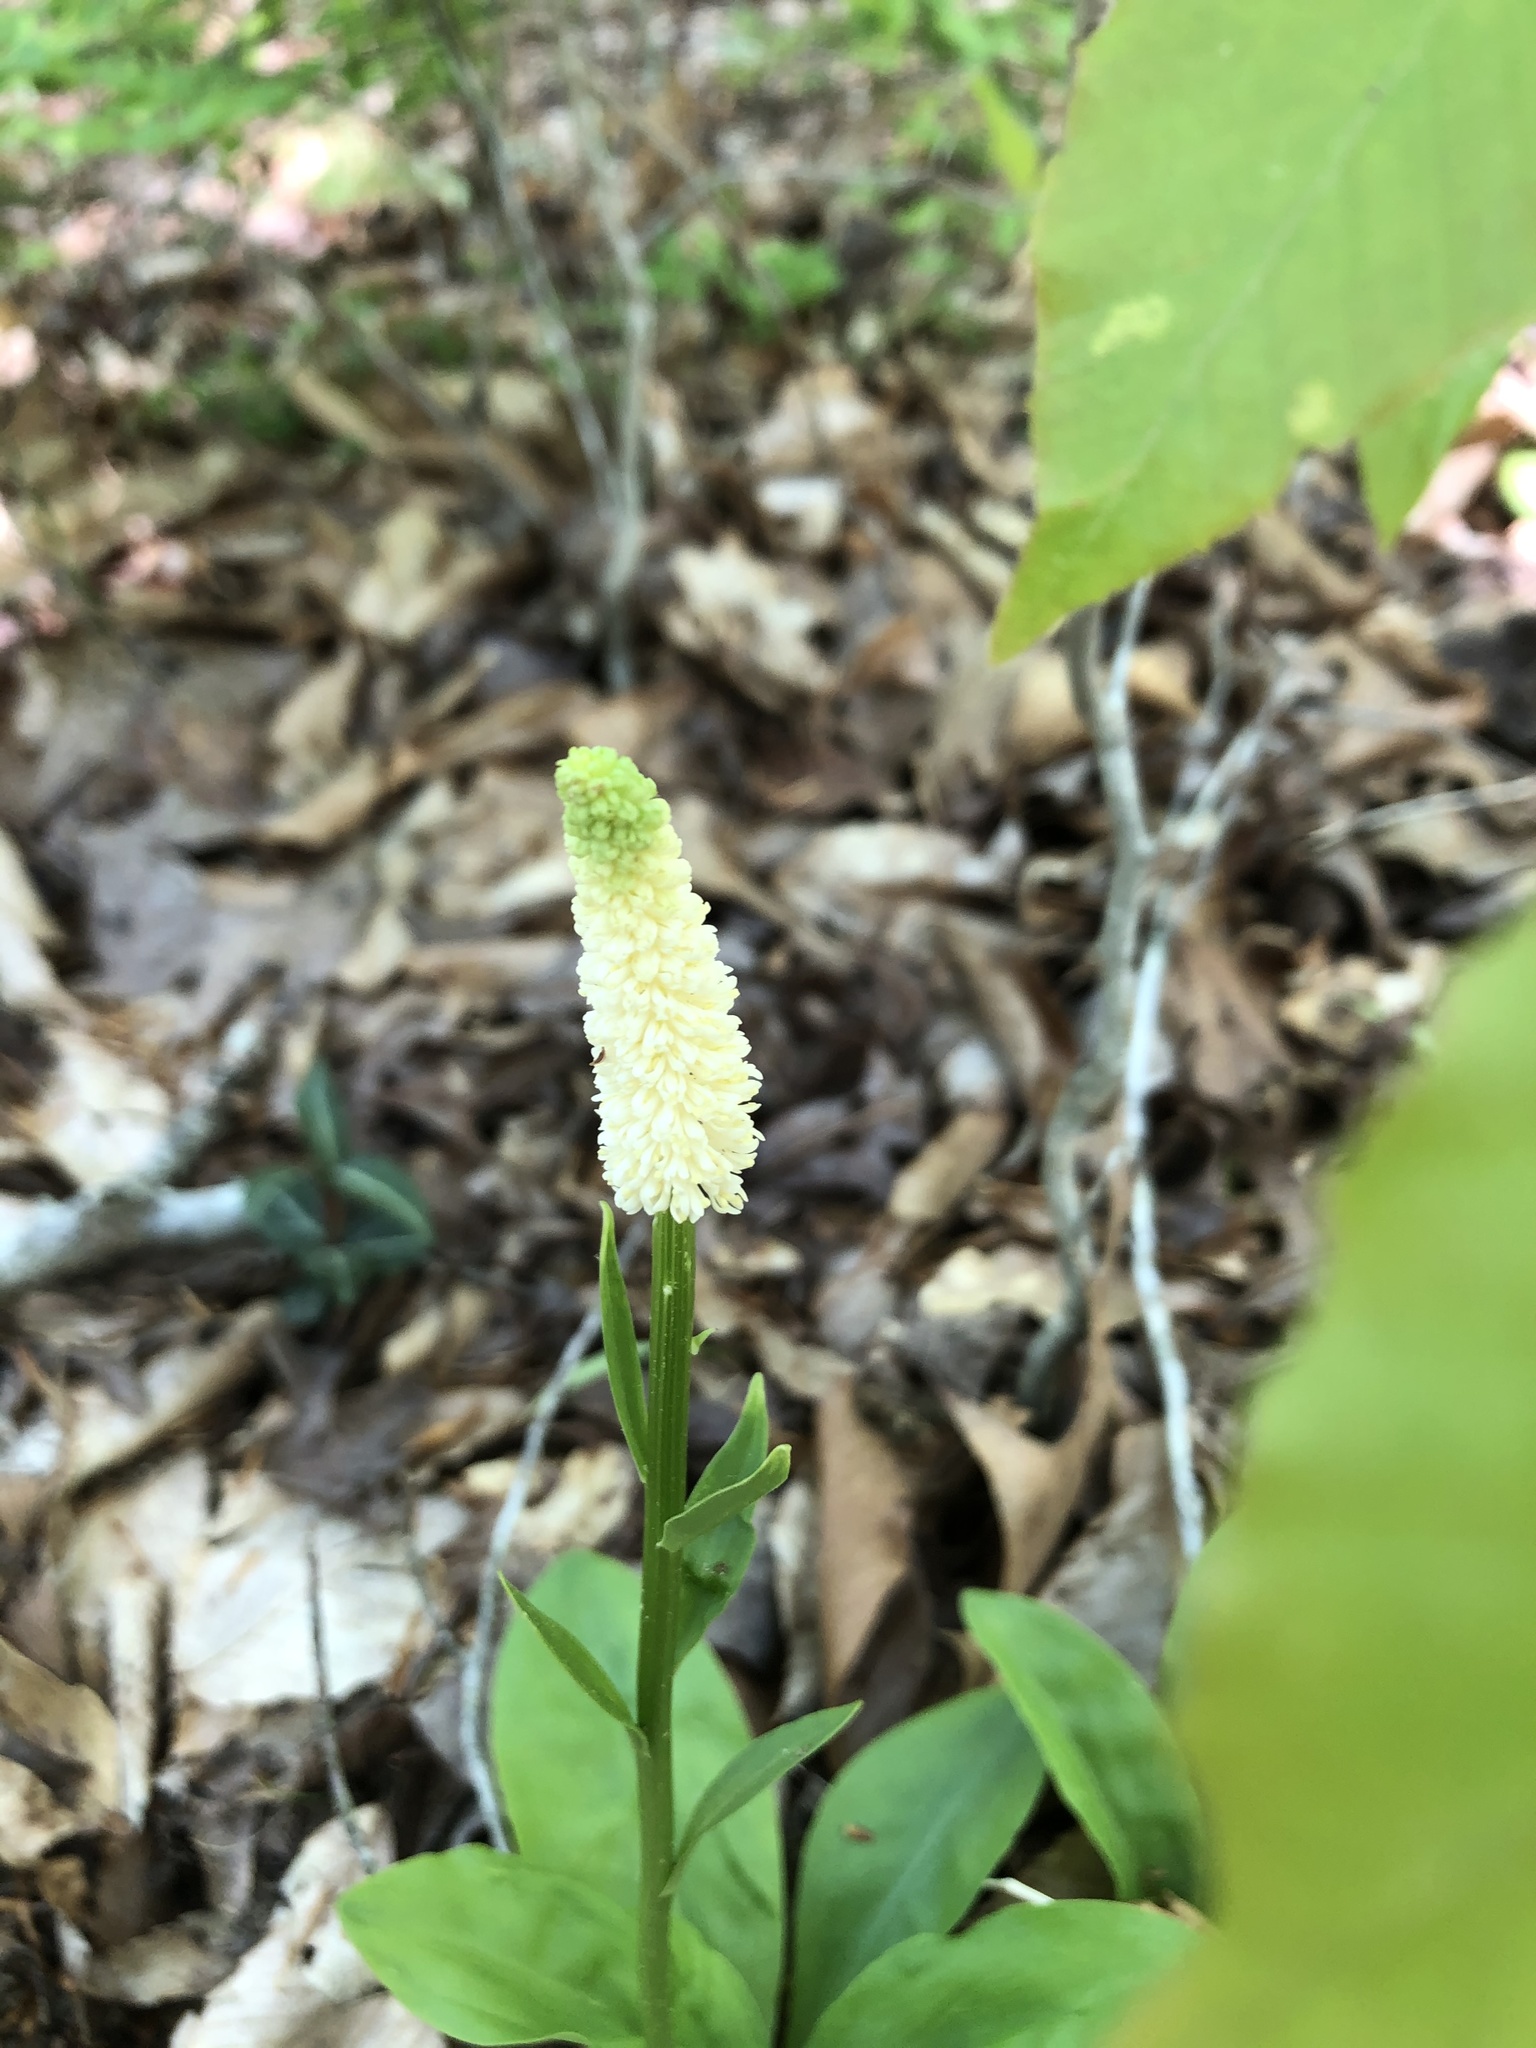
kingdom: Plantae
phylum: Tracheophyta
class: Liliopsida
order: Liliales
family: Melanthiaceae
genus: Chamaelirium
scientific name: Chamaelirium luteum
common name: Fairy-wand
